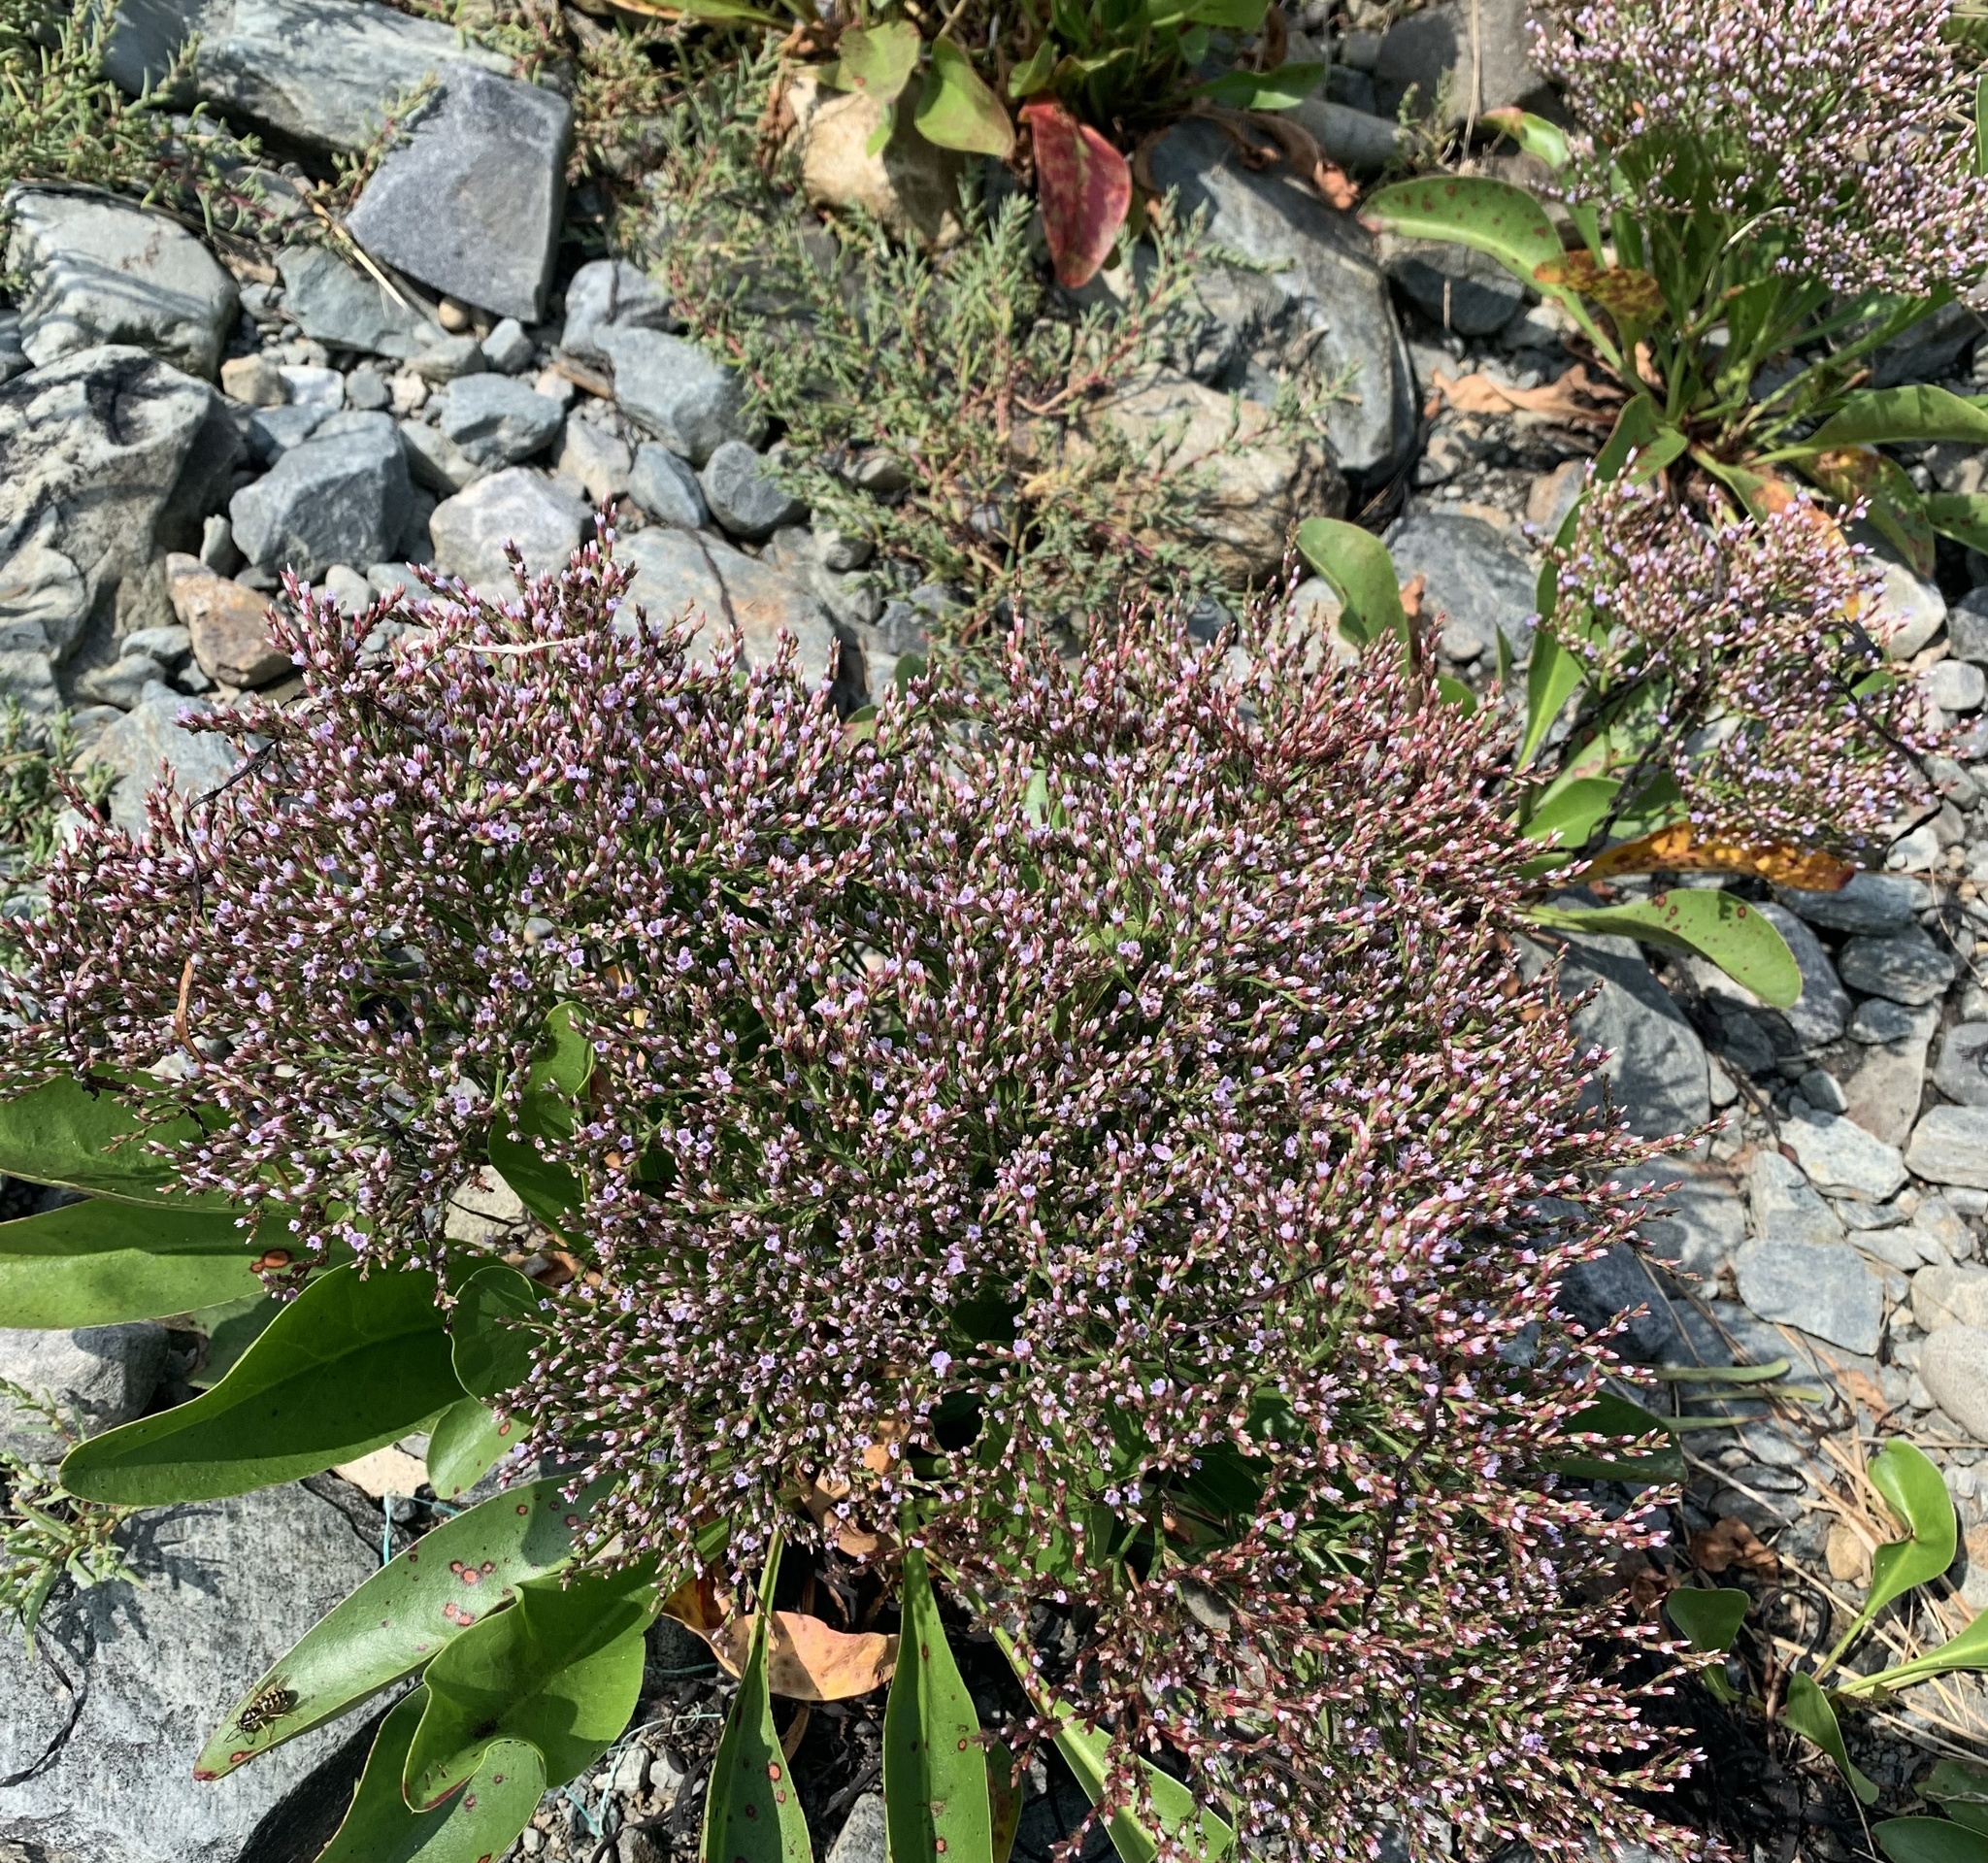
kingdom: Plantae
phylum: Tracheophyta
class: Magnoliopsida
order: Caryophyllales
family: Plumbaginaceae
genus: Limonium
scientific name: Limonium carolinianum
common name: Carolina sea lavender
